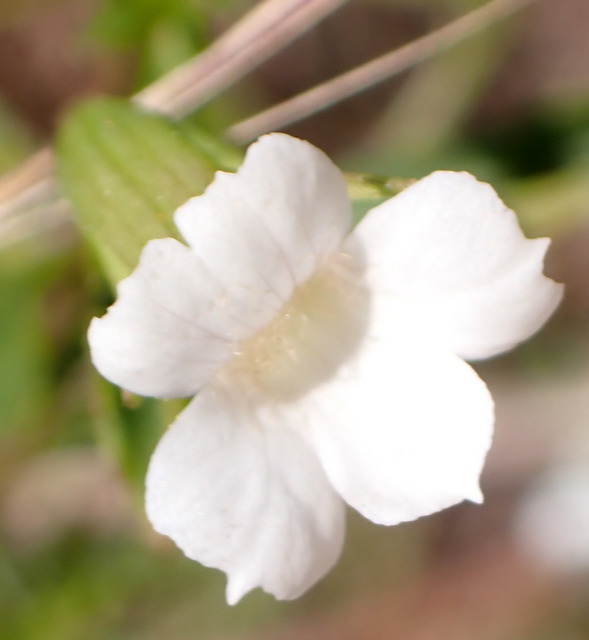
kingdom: Plantae
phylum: Tracheophyta
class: Magnoliopsida
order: Lamiales
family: Plantaginaceae
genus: Mecardonia
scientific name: Mecardonia acuminata
